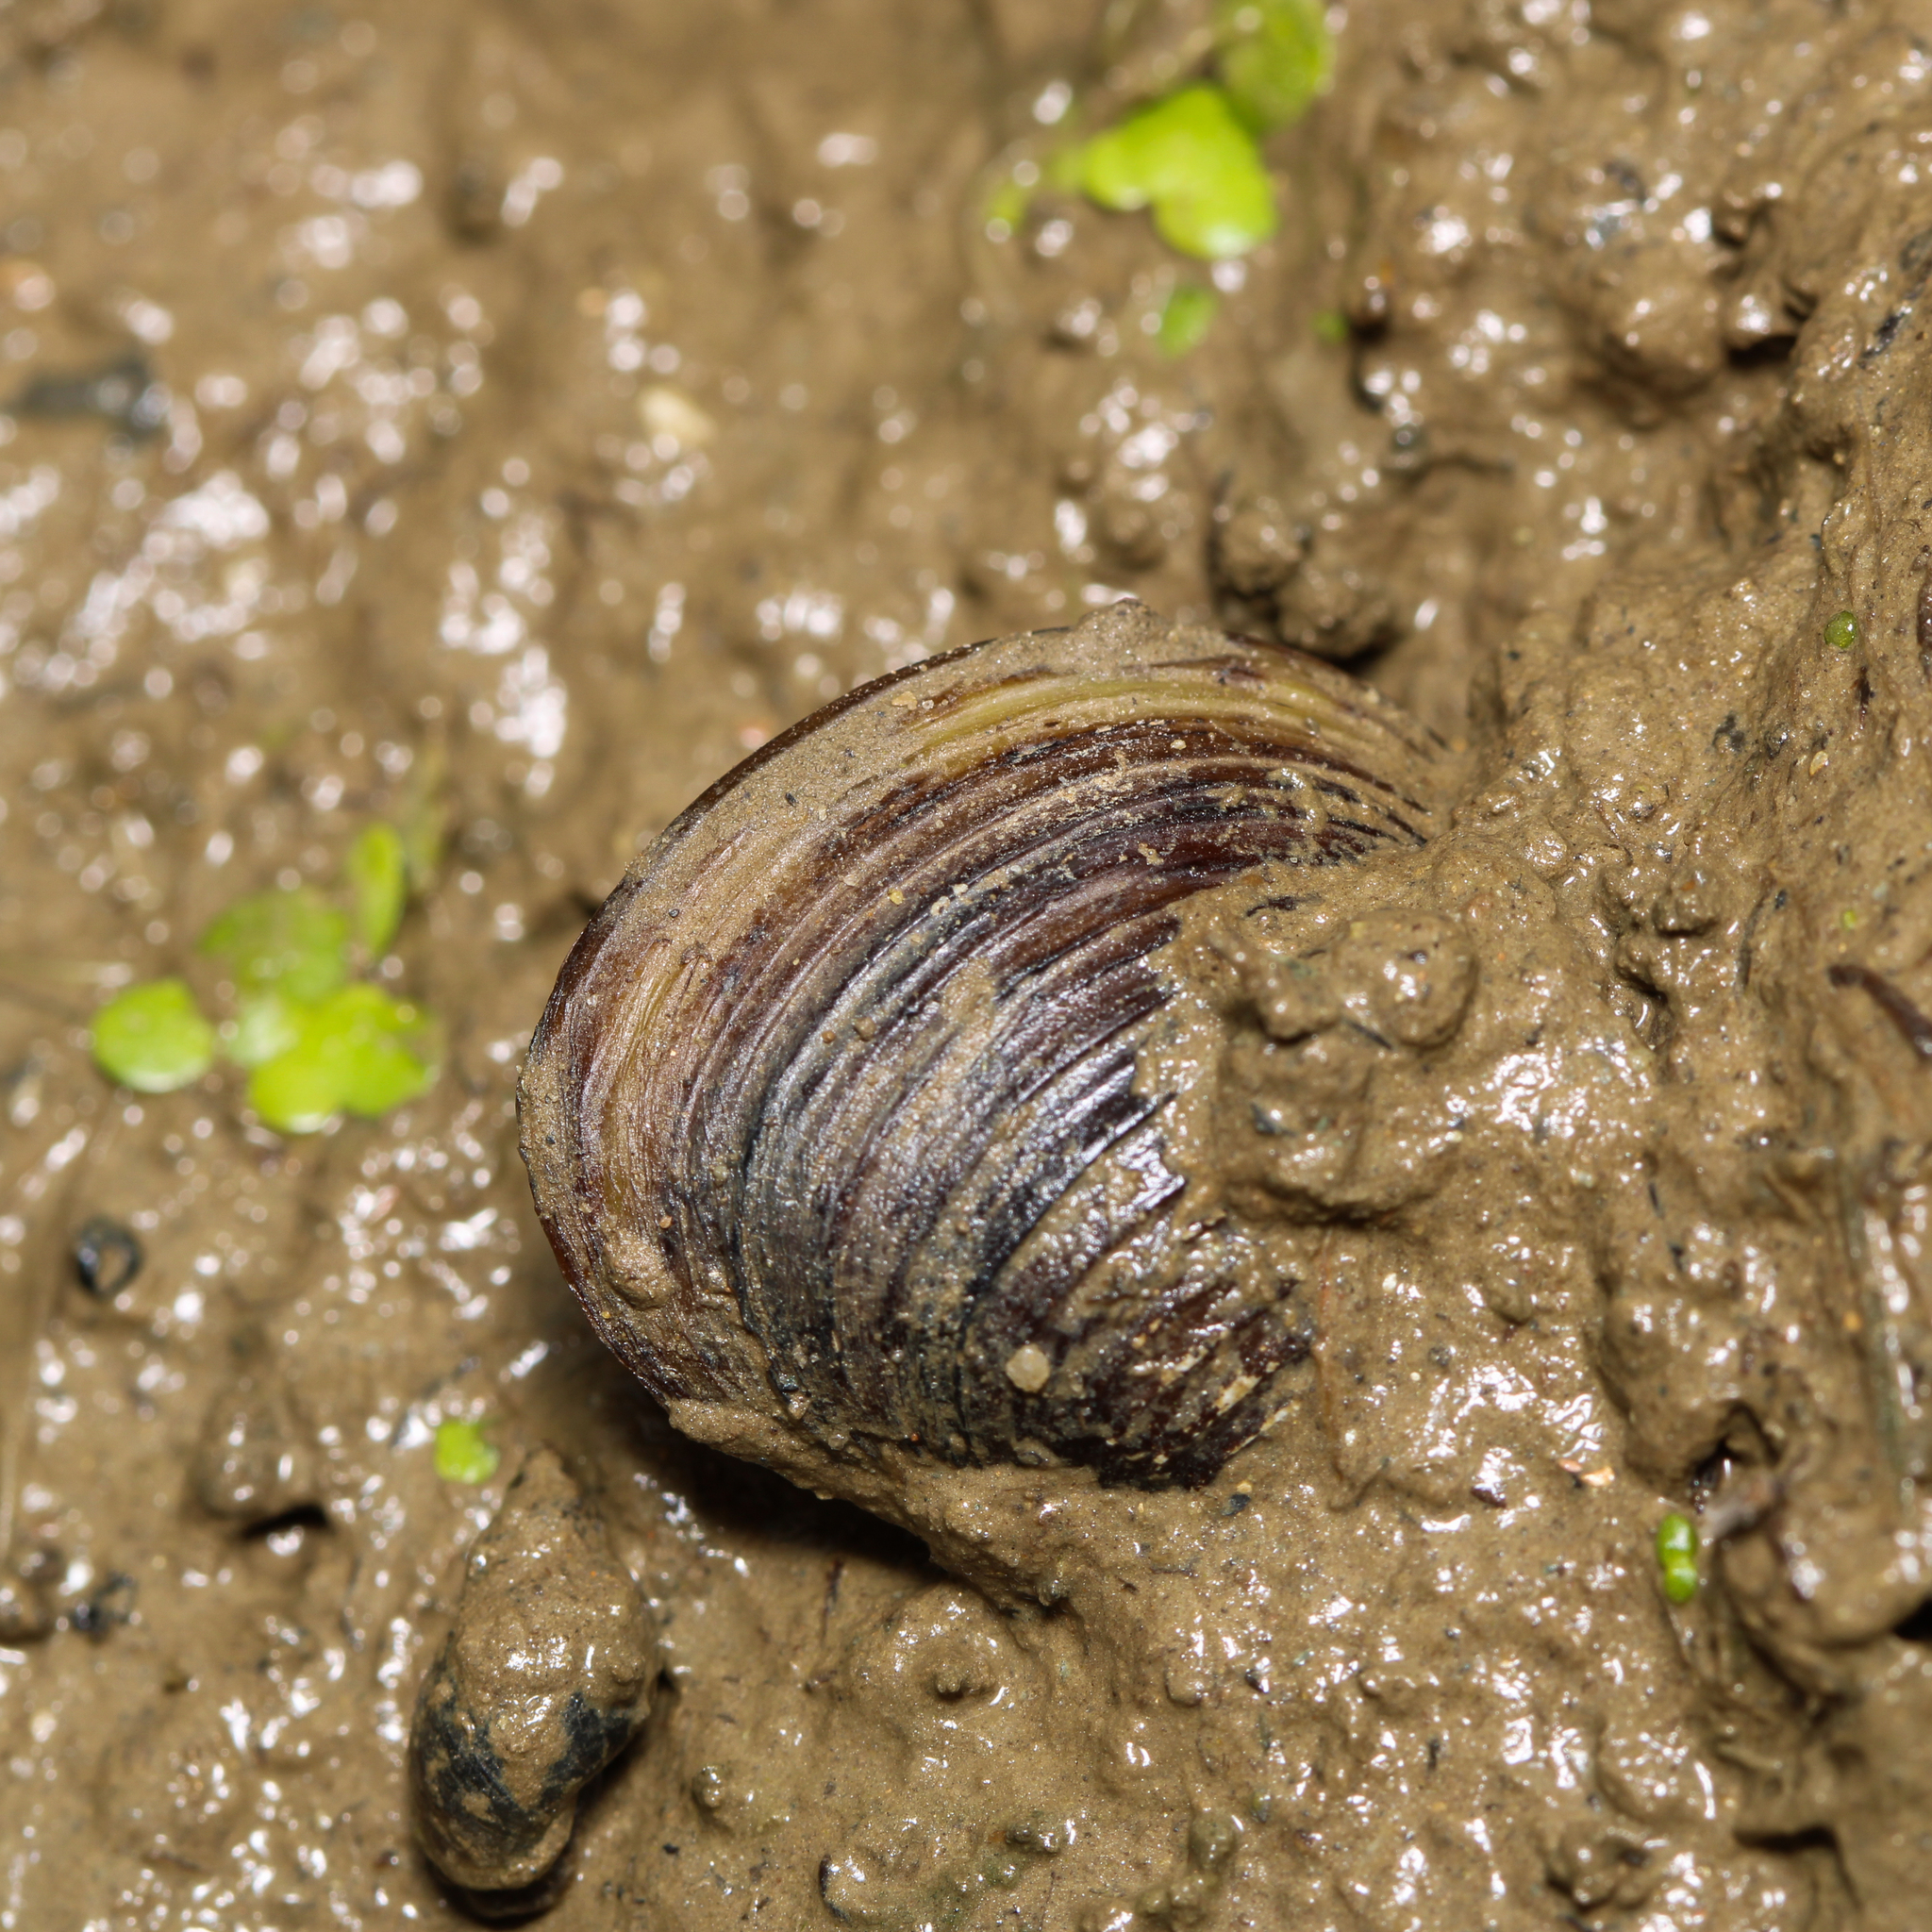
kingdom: Animalia
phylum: Mollusca
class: Bivalvia
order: Venerida
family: Cyrenidae
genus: Corbicula
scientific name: Corbicula fluminea
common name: Asian clam
